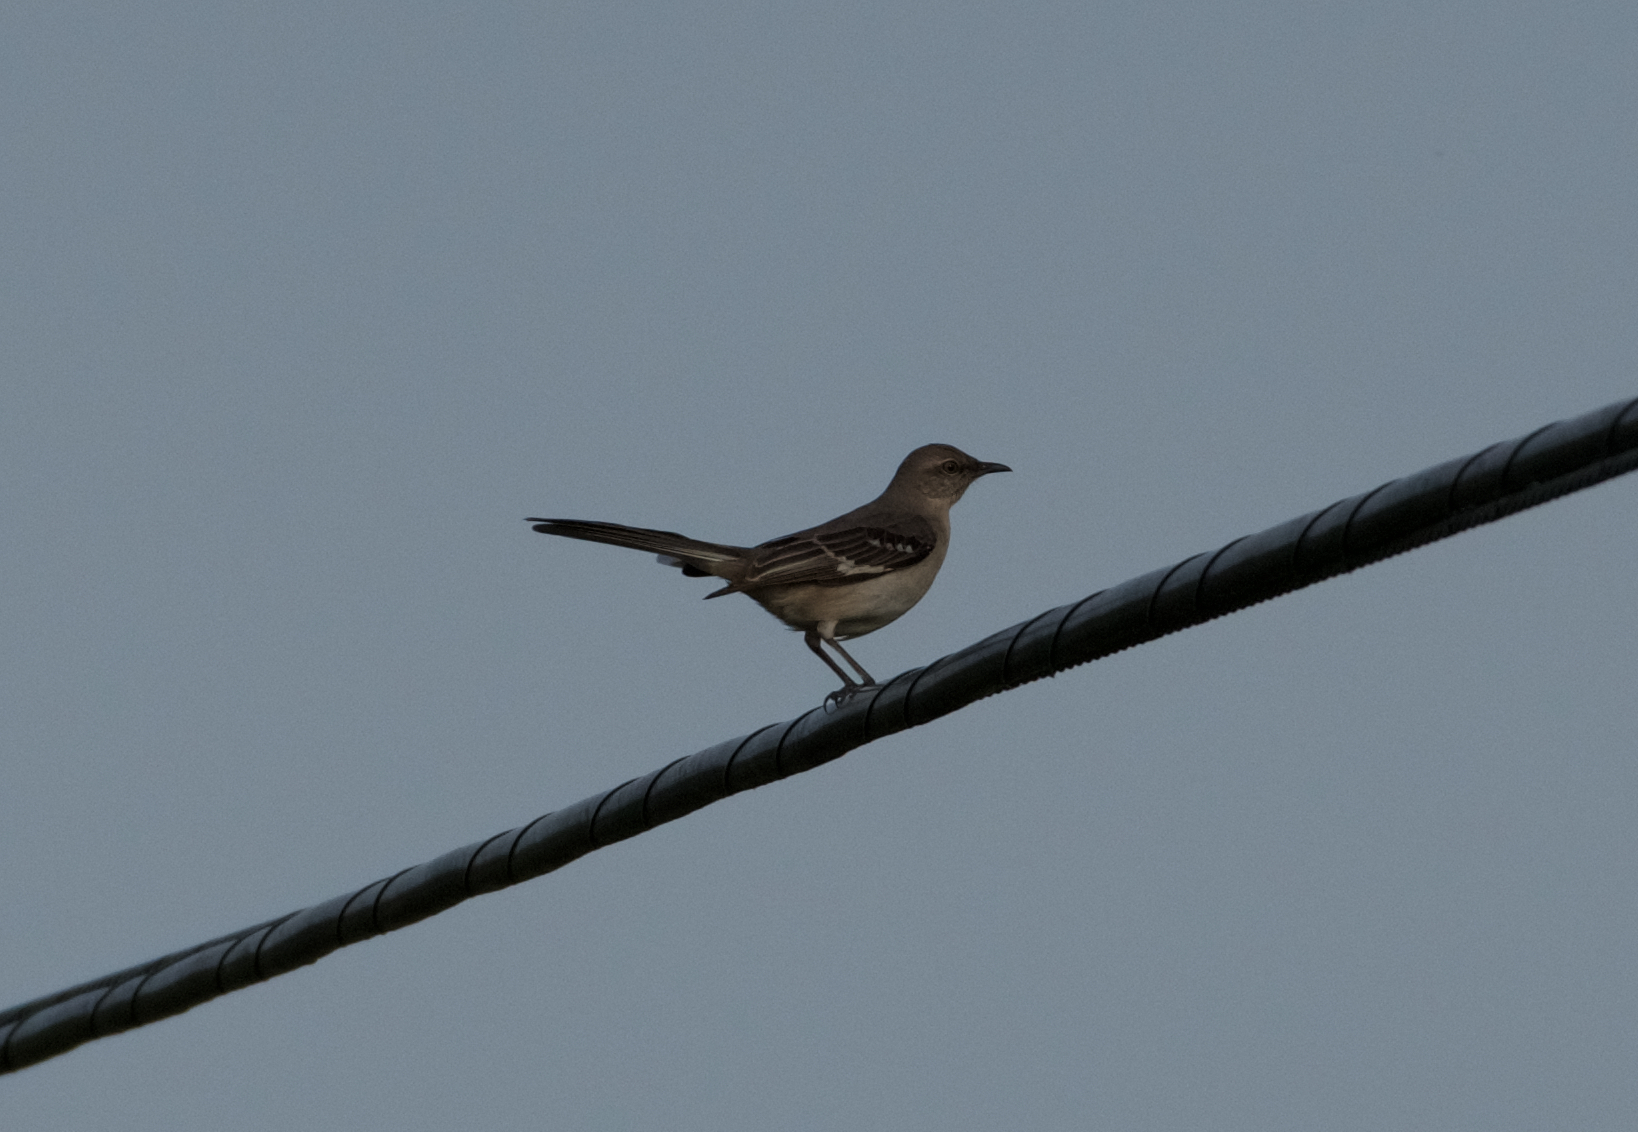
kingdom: Animalia
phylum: Chordata
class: Aves
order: Passeriformes
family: Mimidae
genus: Mimus
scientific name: Mimus polyglottos
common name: Northern mockingbird
